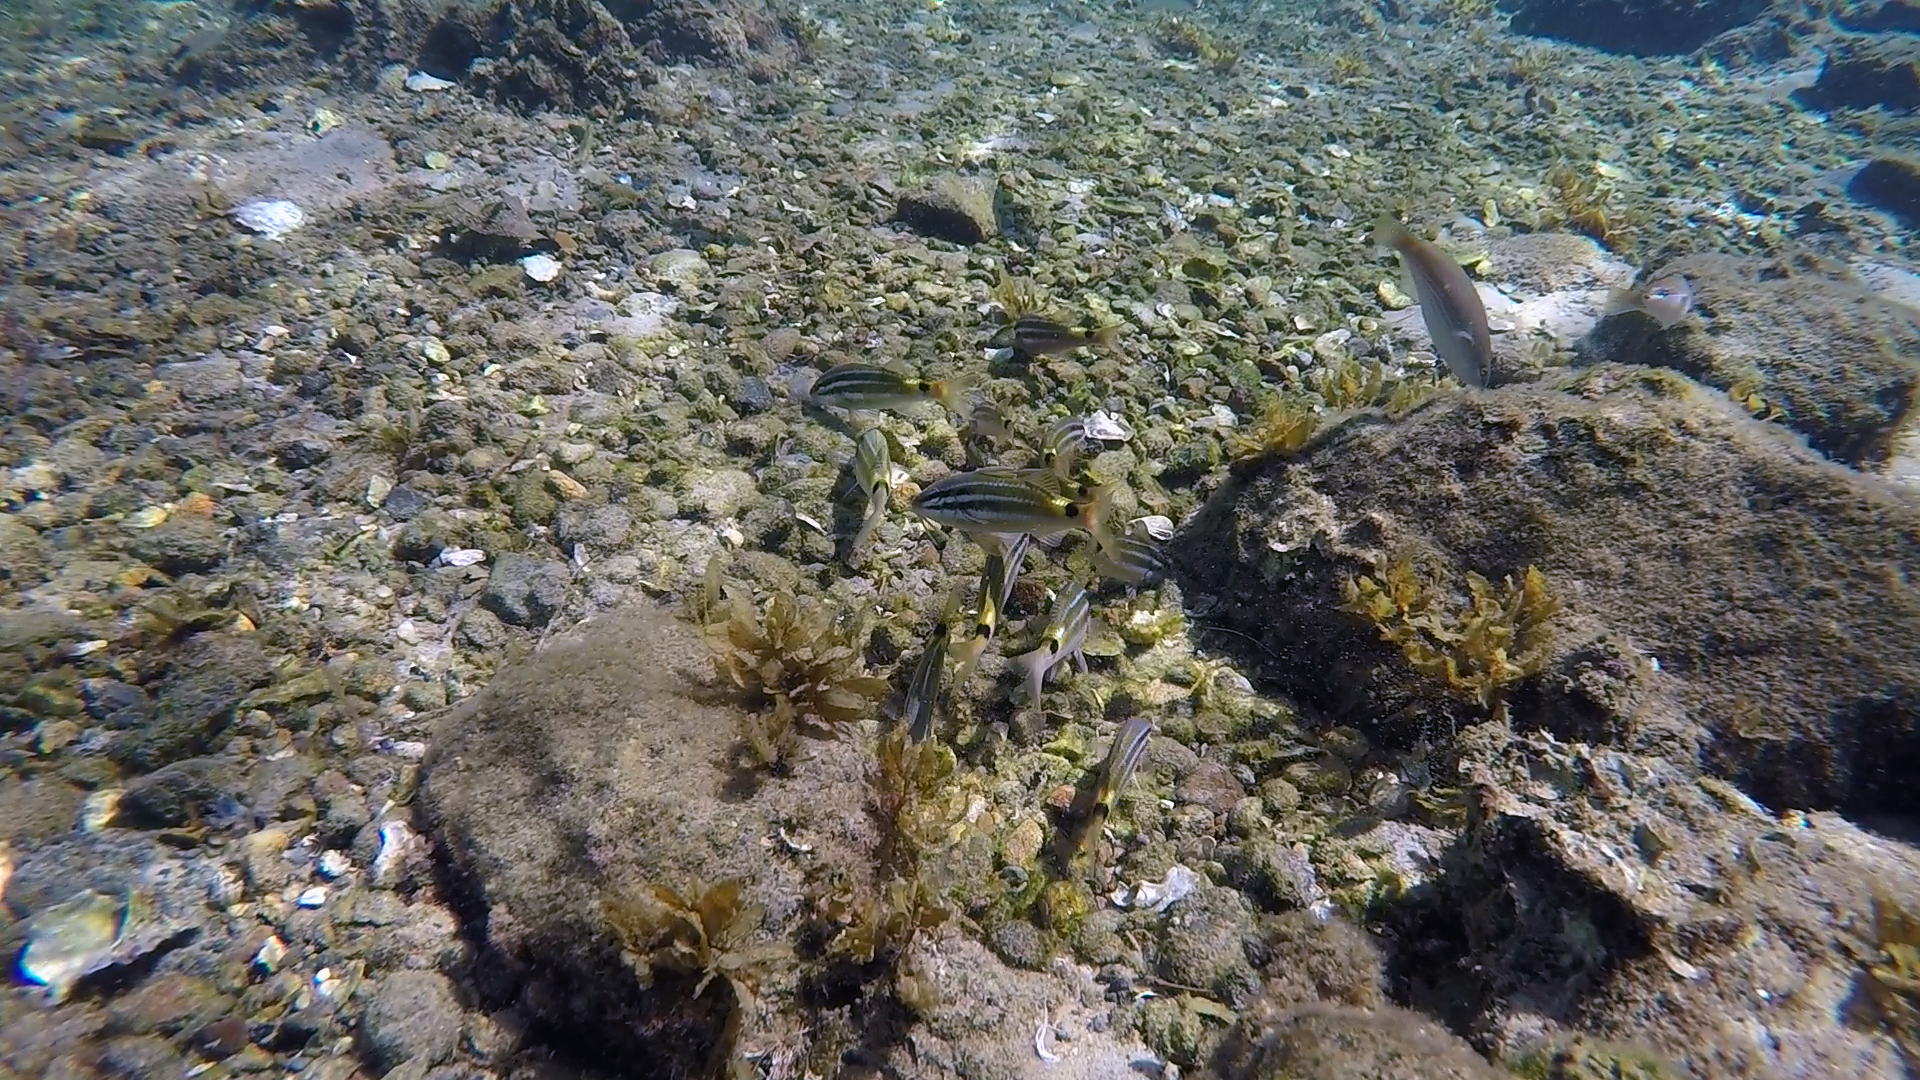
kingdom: Animalia
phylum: Chordata
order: Perciformes
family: Mullidae
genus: Parupeneus
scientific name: Parupeneus spilurus
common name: Blackspot goatfish
